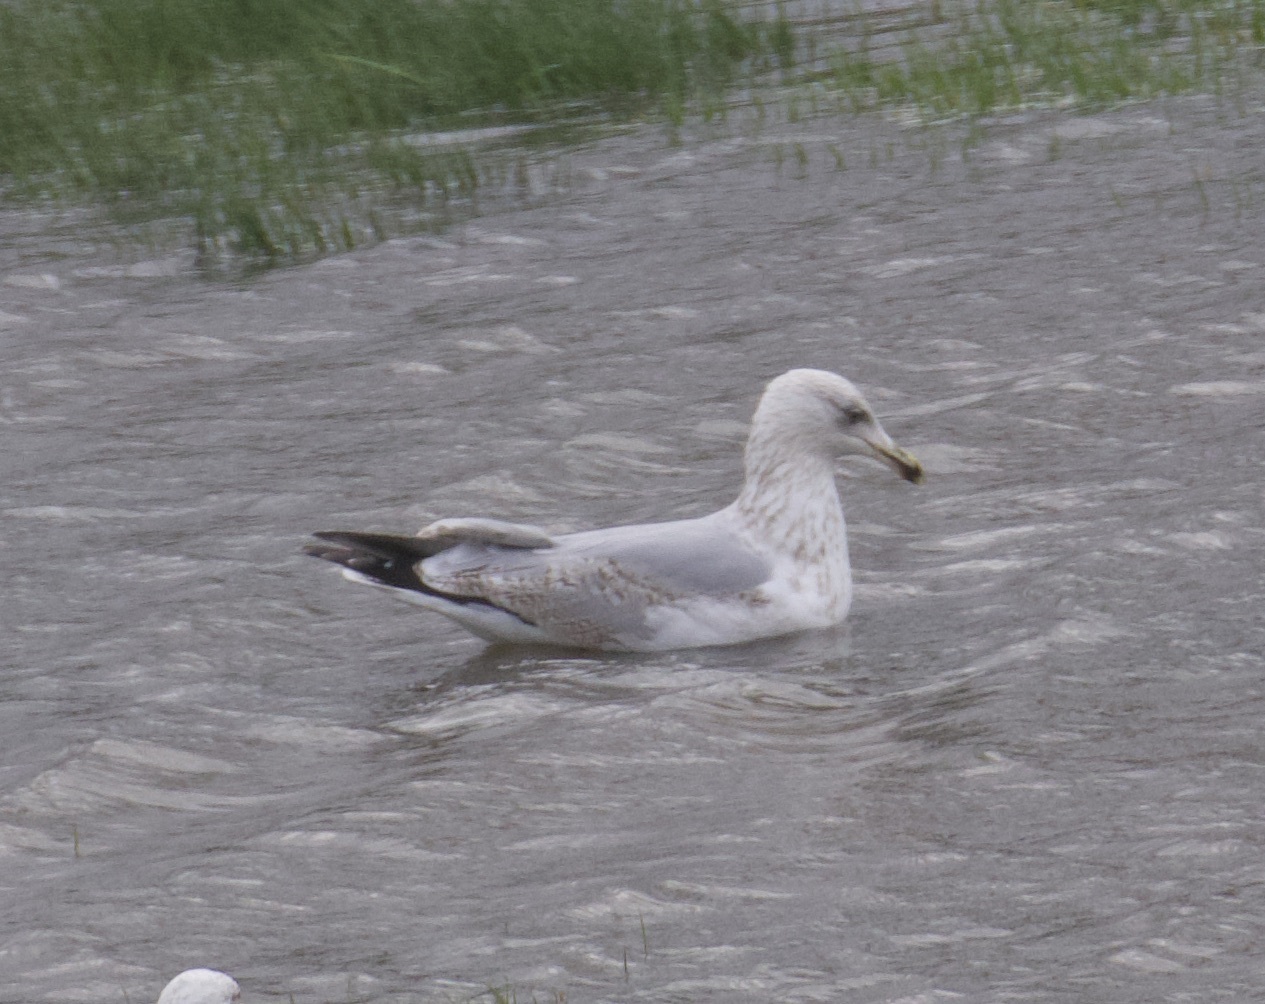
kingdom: Animalia
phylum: Chordata
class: Aves
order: Charadriiformes
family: Laridae
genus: Larus
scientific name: Larus argentatus
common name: Herring gull
